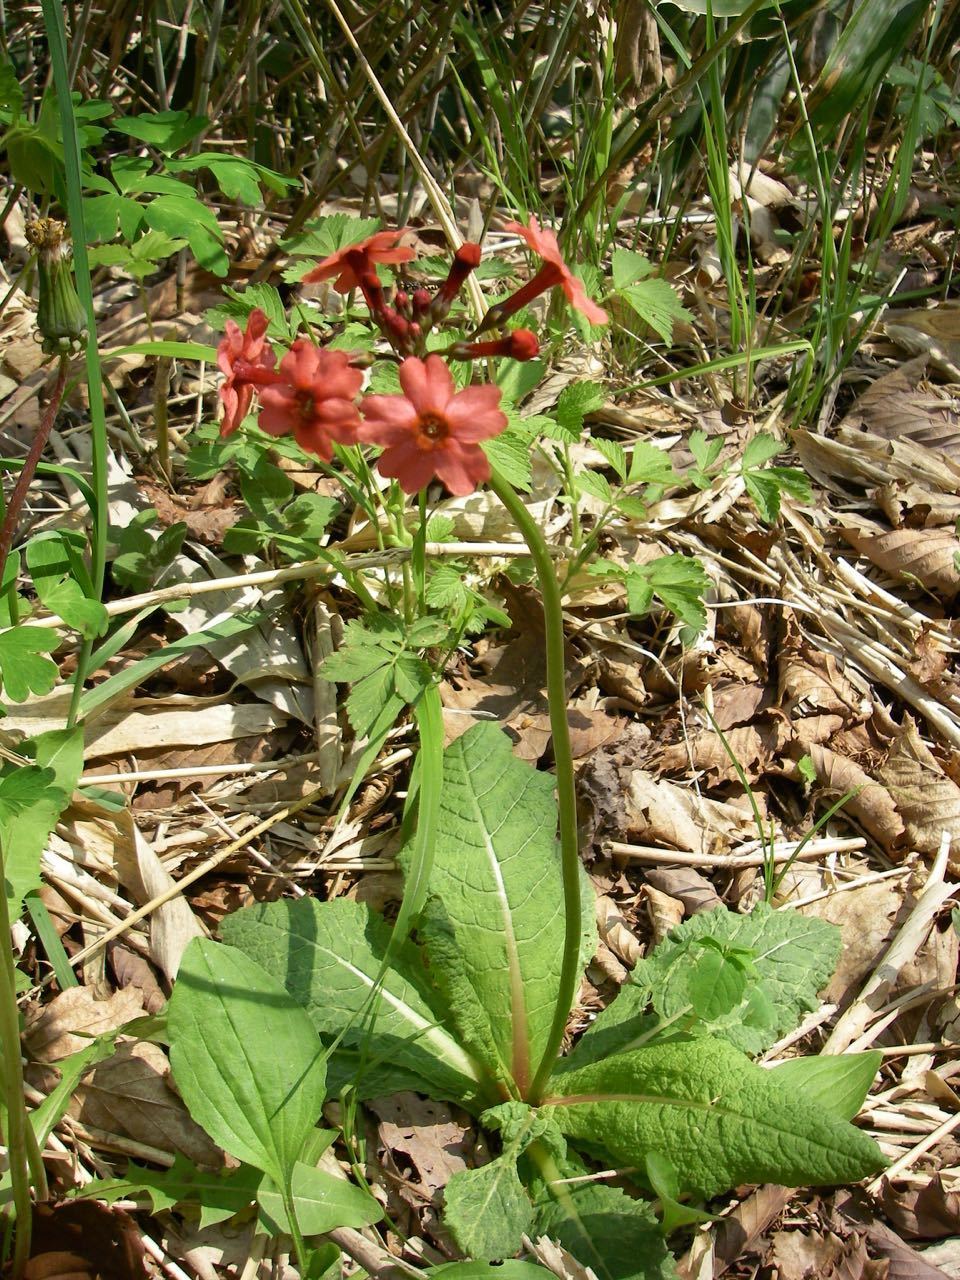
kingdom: Plantae
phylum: Tracheophyta
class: Magnoliopsida
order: Ericales
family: Primulaceae
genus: Primula
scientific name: Primula japonica
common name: Japanese cowslip
